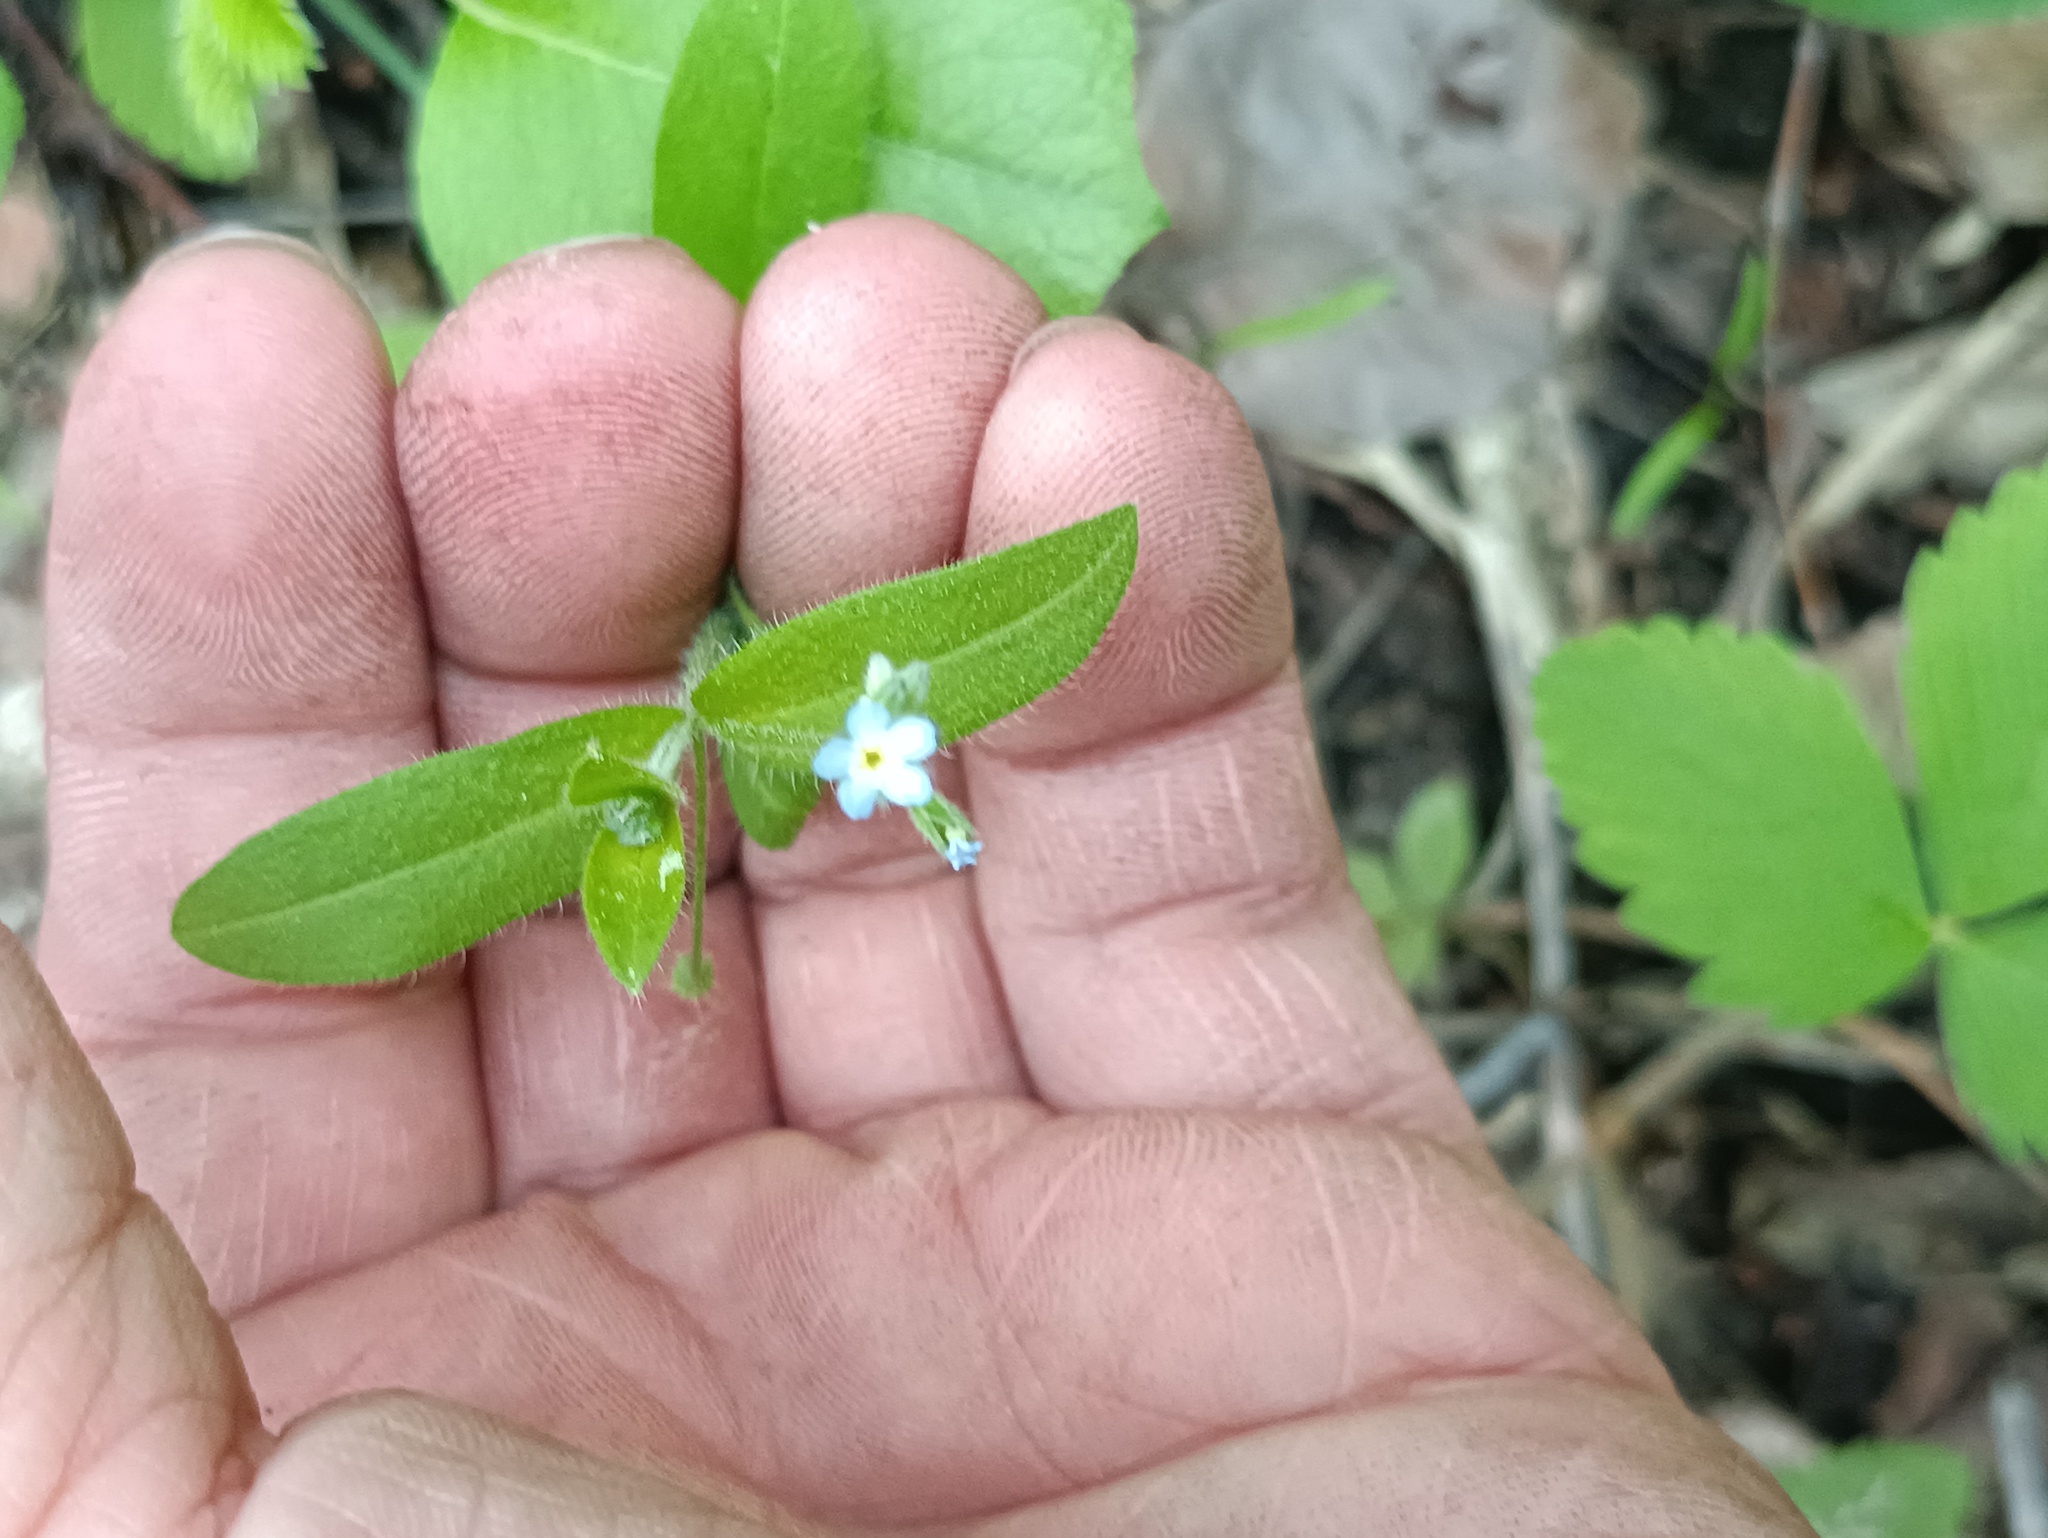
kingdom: Plantae
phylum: Tracheophyta
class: Magnoliopsida
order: Boraginales
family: Boraginaceae
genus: Myosotis
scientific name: Myosotis sparsiflora
